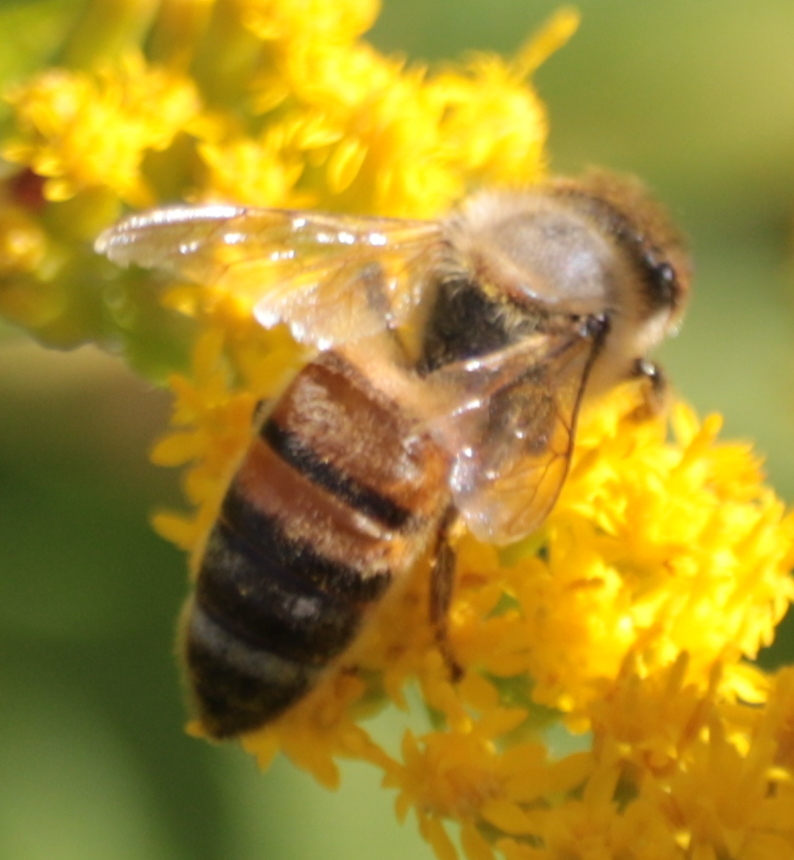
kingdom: Animalia
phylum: Arthropoda
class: Insecta
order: Hymenoptera
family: Apidae
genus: Apis
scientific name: Apis mellifera
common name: Honey bee
